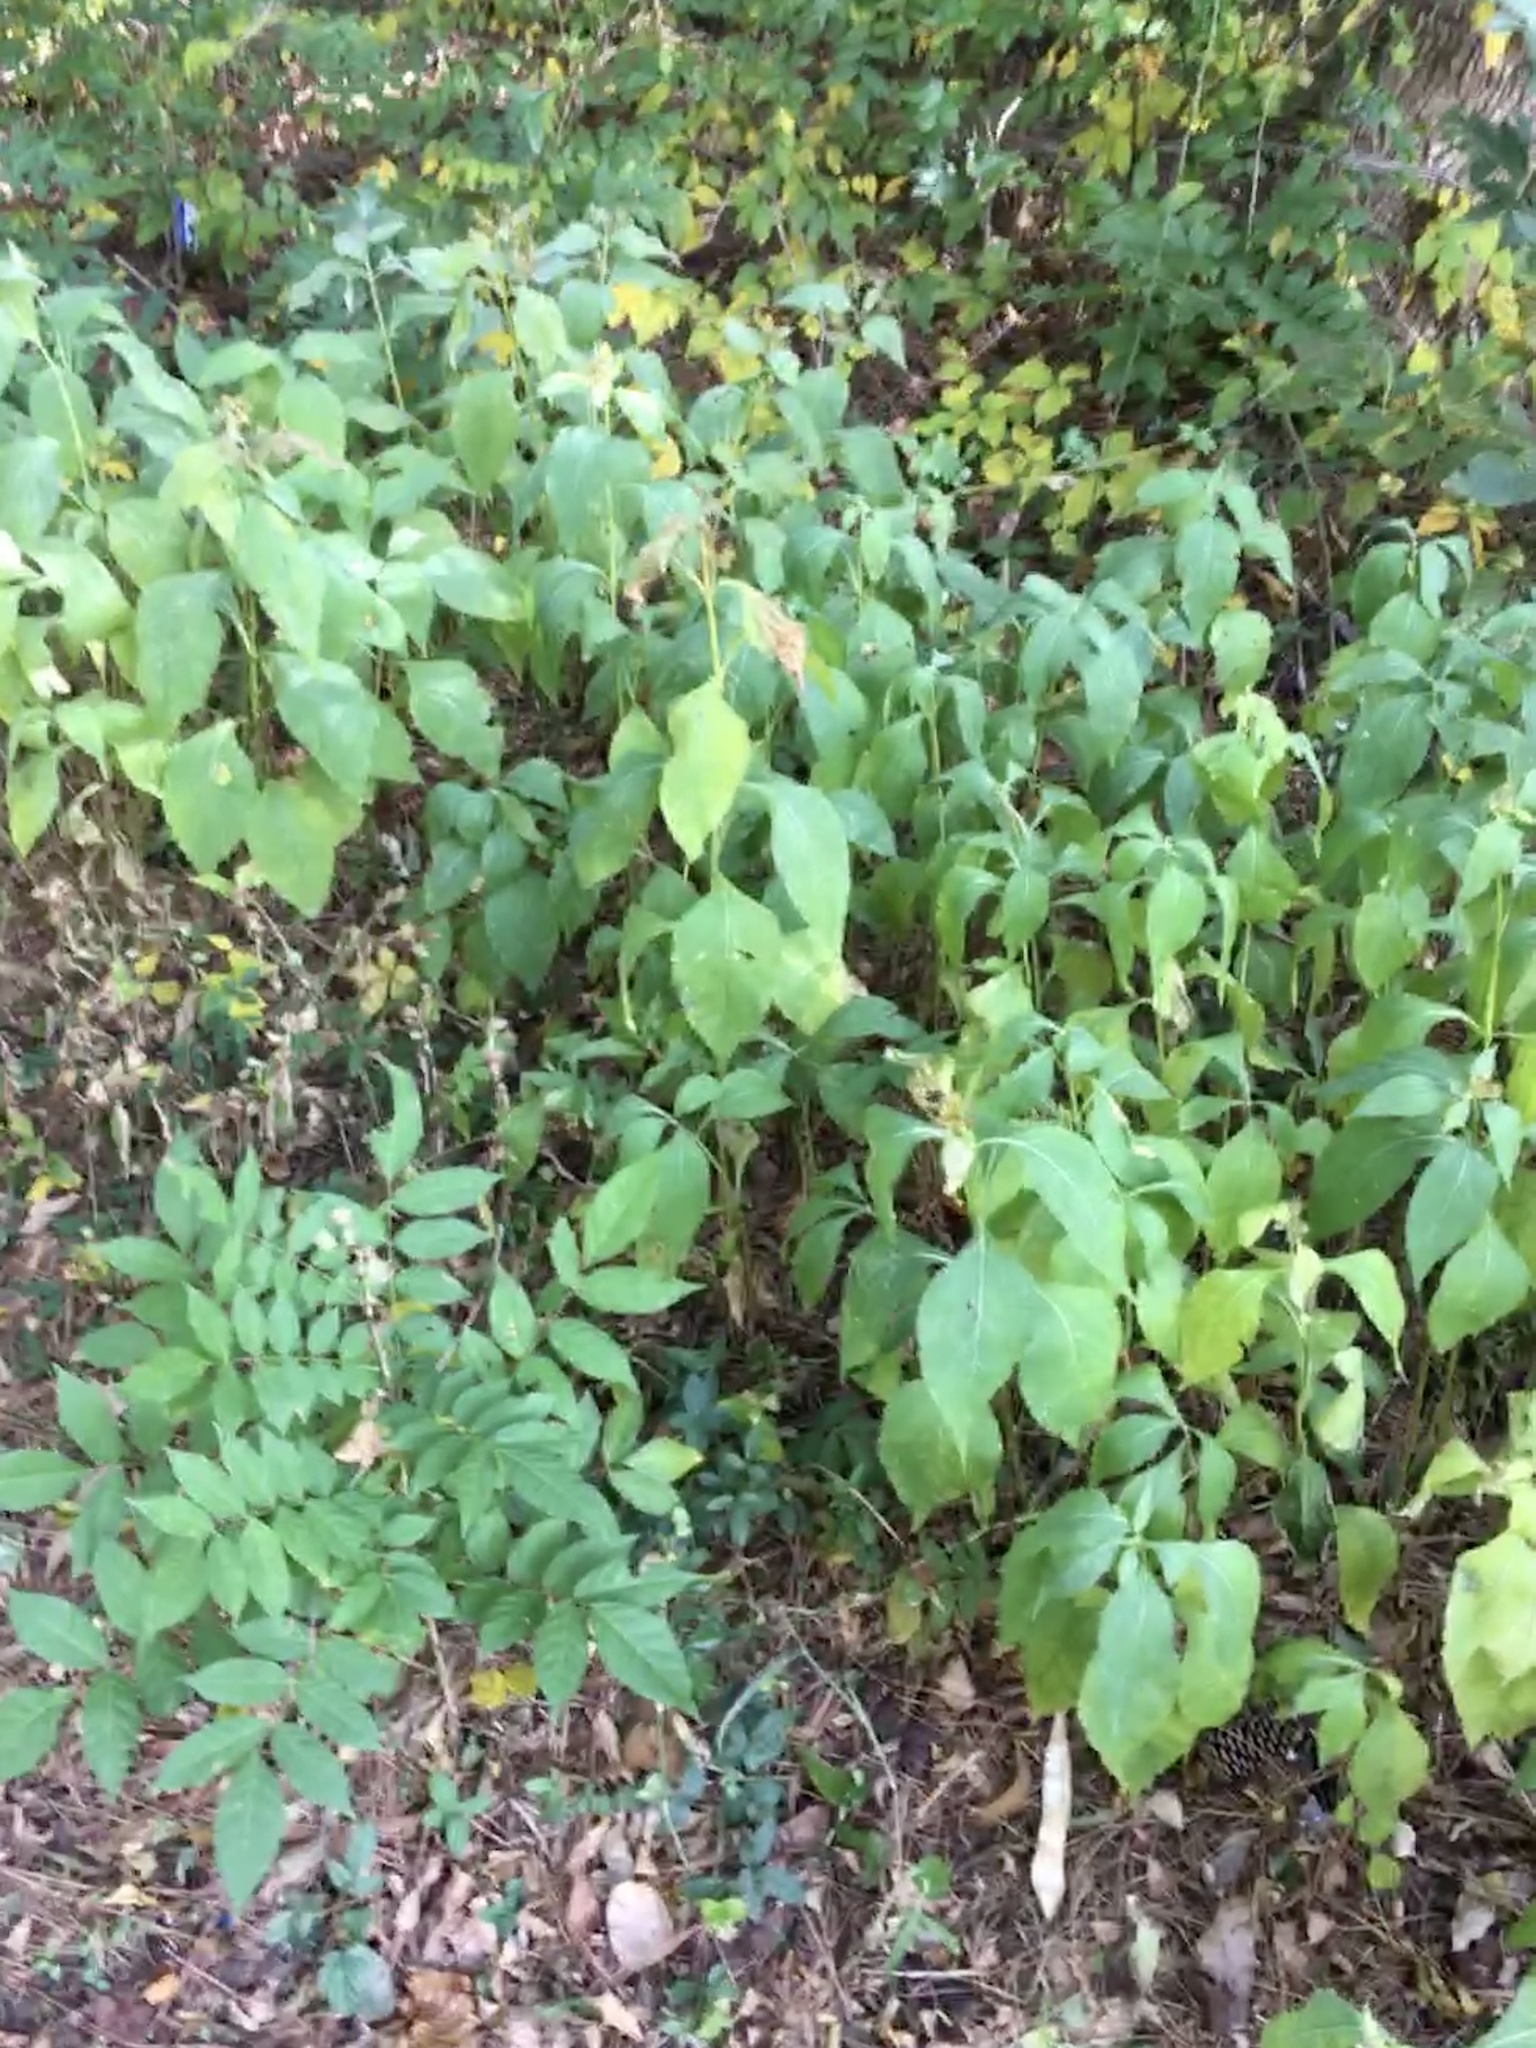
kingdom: Plantae
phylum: Tracheophyta
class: Magnoliopsida
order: Asterales
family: Asteraceae
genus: Verbesina
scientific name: Verbesina occidentalis
